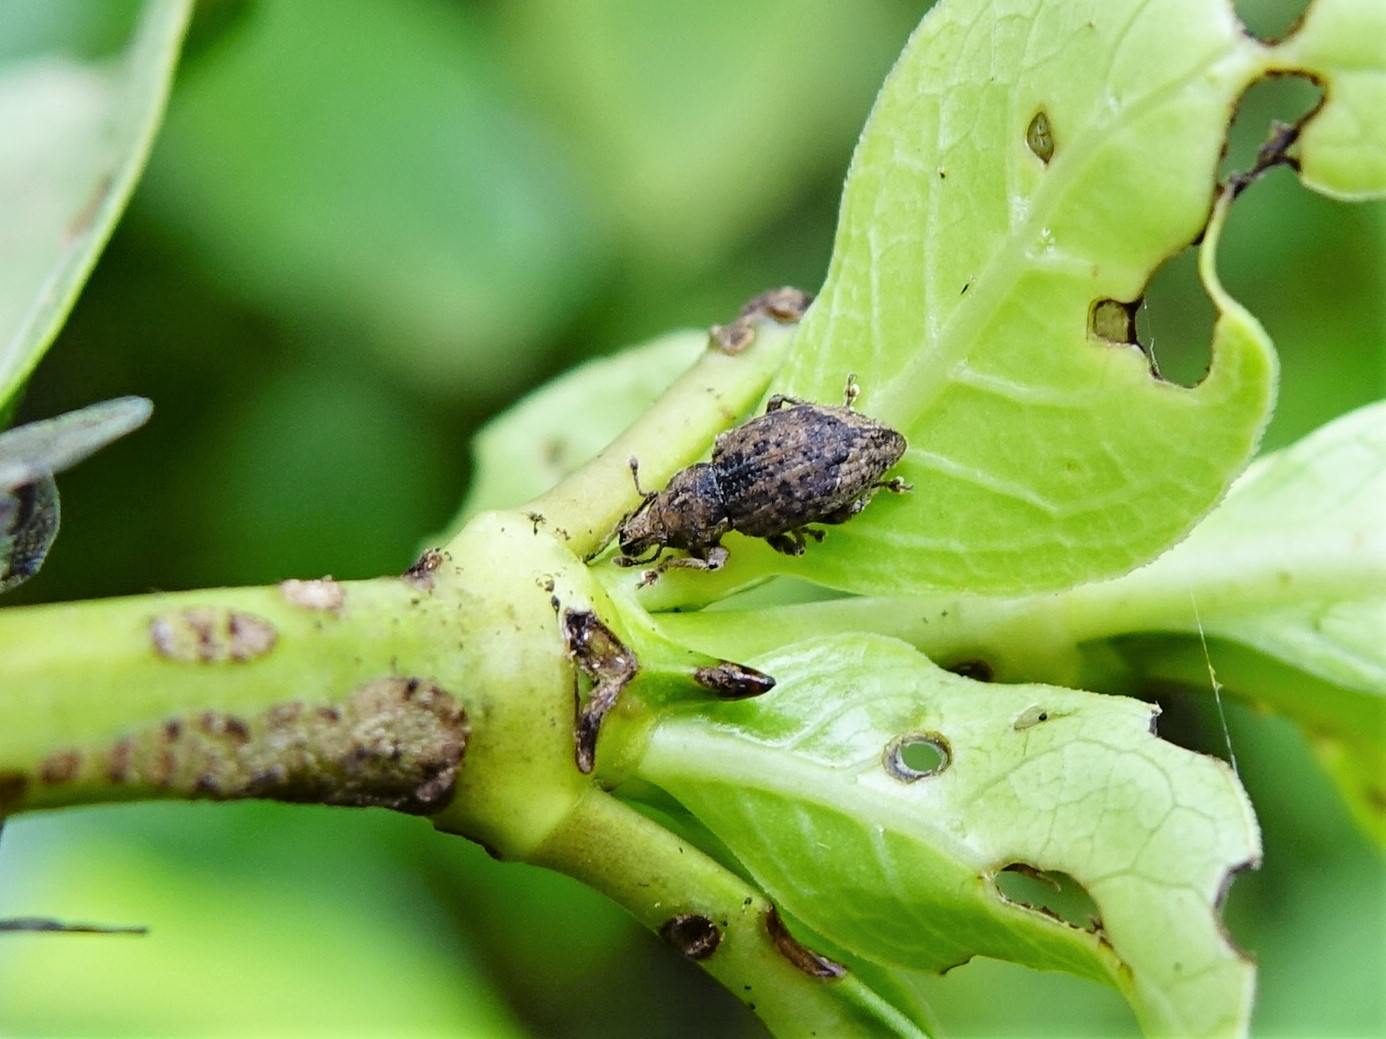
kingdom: Animalia
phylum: Arthropoda
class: Insecta
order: Coleoptera
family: Curculionidae
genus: Chalepistes
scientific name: Chalepistes compressus
